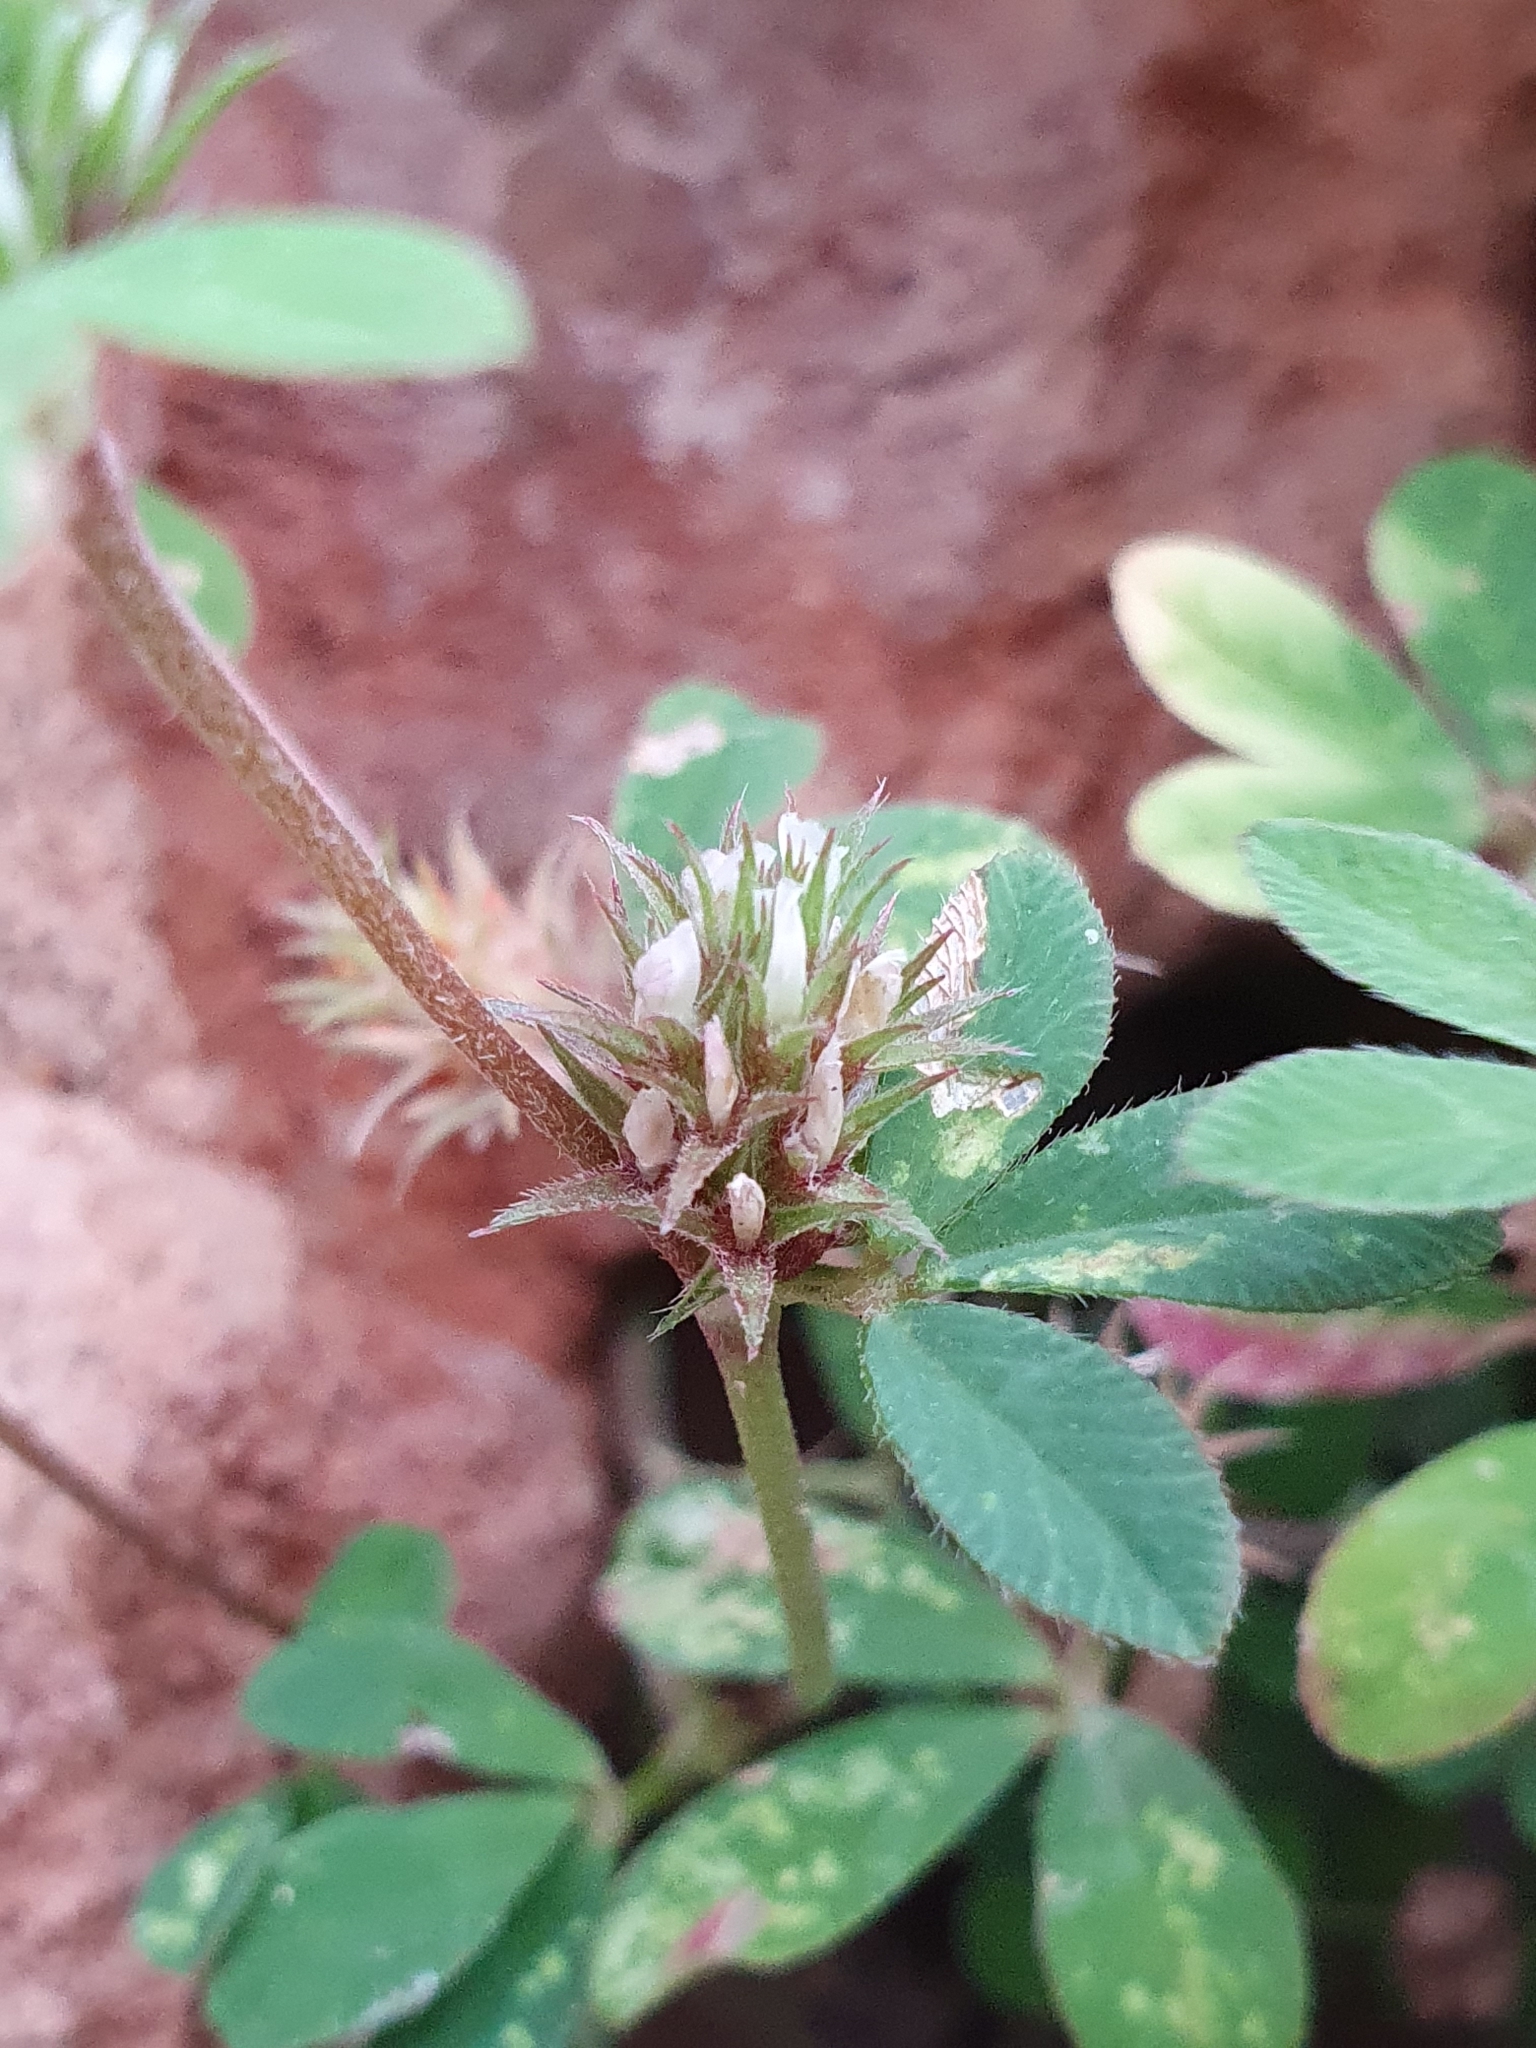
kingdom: Plantae
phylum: Tracheophyta
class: Magnoliopsida
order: Fabales
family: Fabaceae
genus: Trifolium
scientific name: Trifolium scabrum
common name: Rough clover
